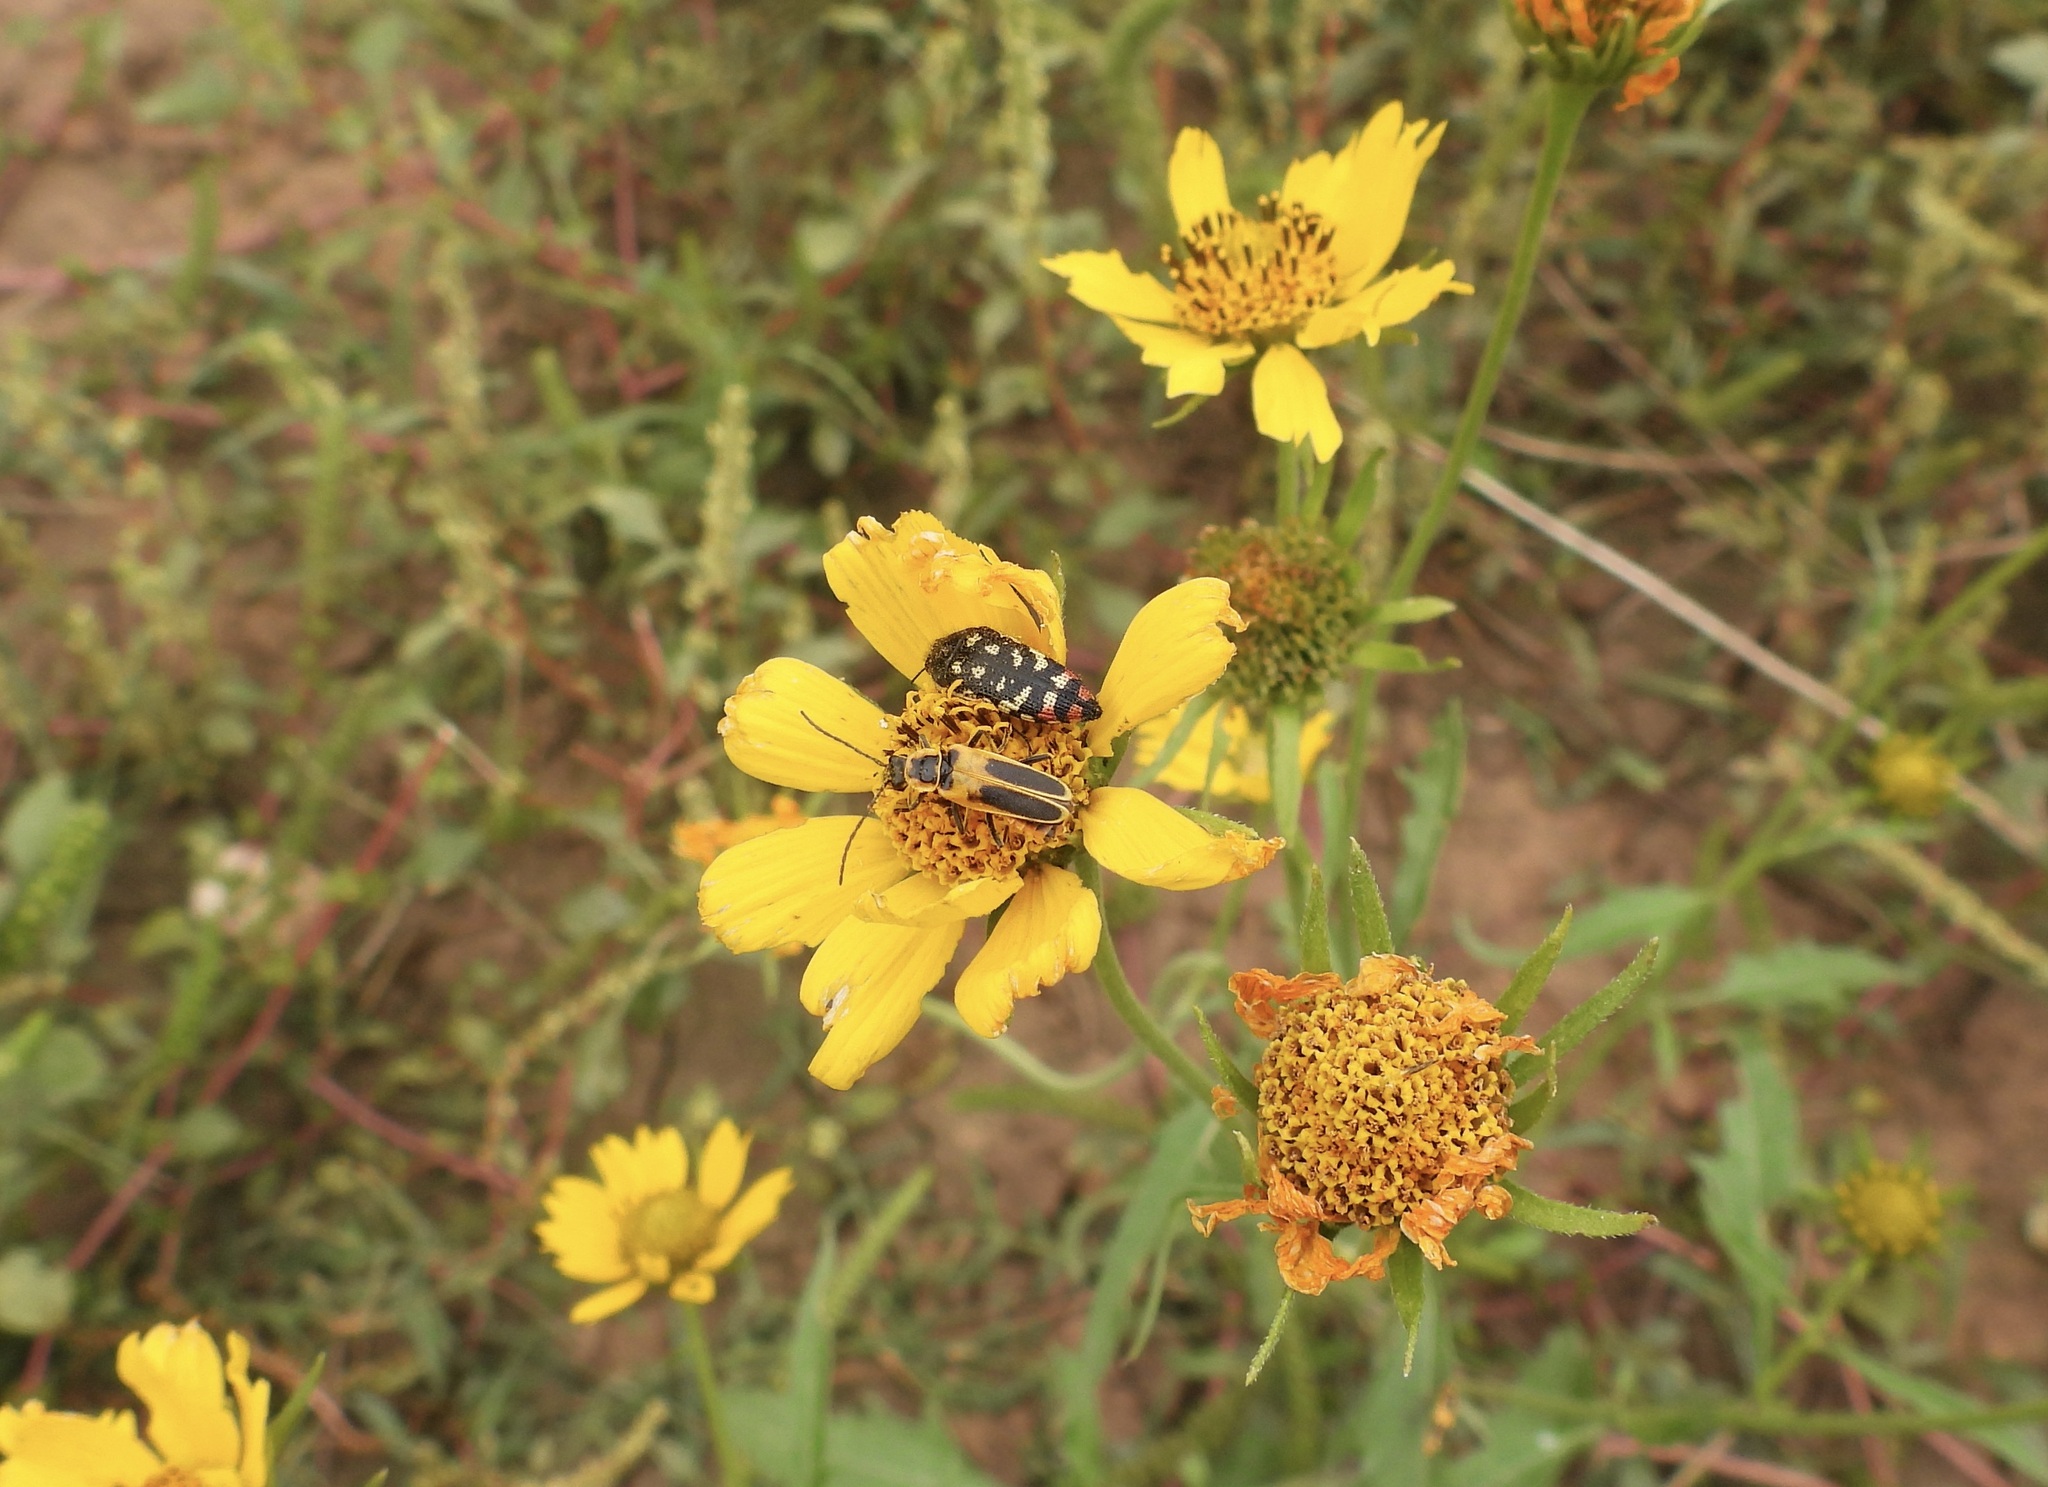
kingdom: Animalia
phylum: Arthropoda
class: Insecta
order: Coleoptera
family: Buprestidae
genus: Acmaeodera
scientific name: Acmaeodera opacula
